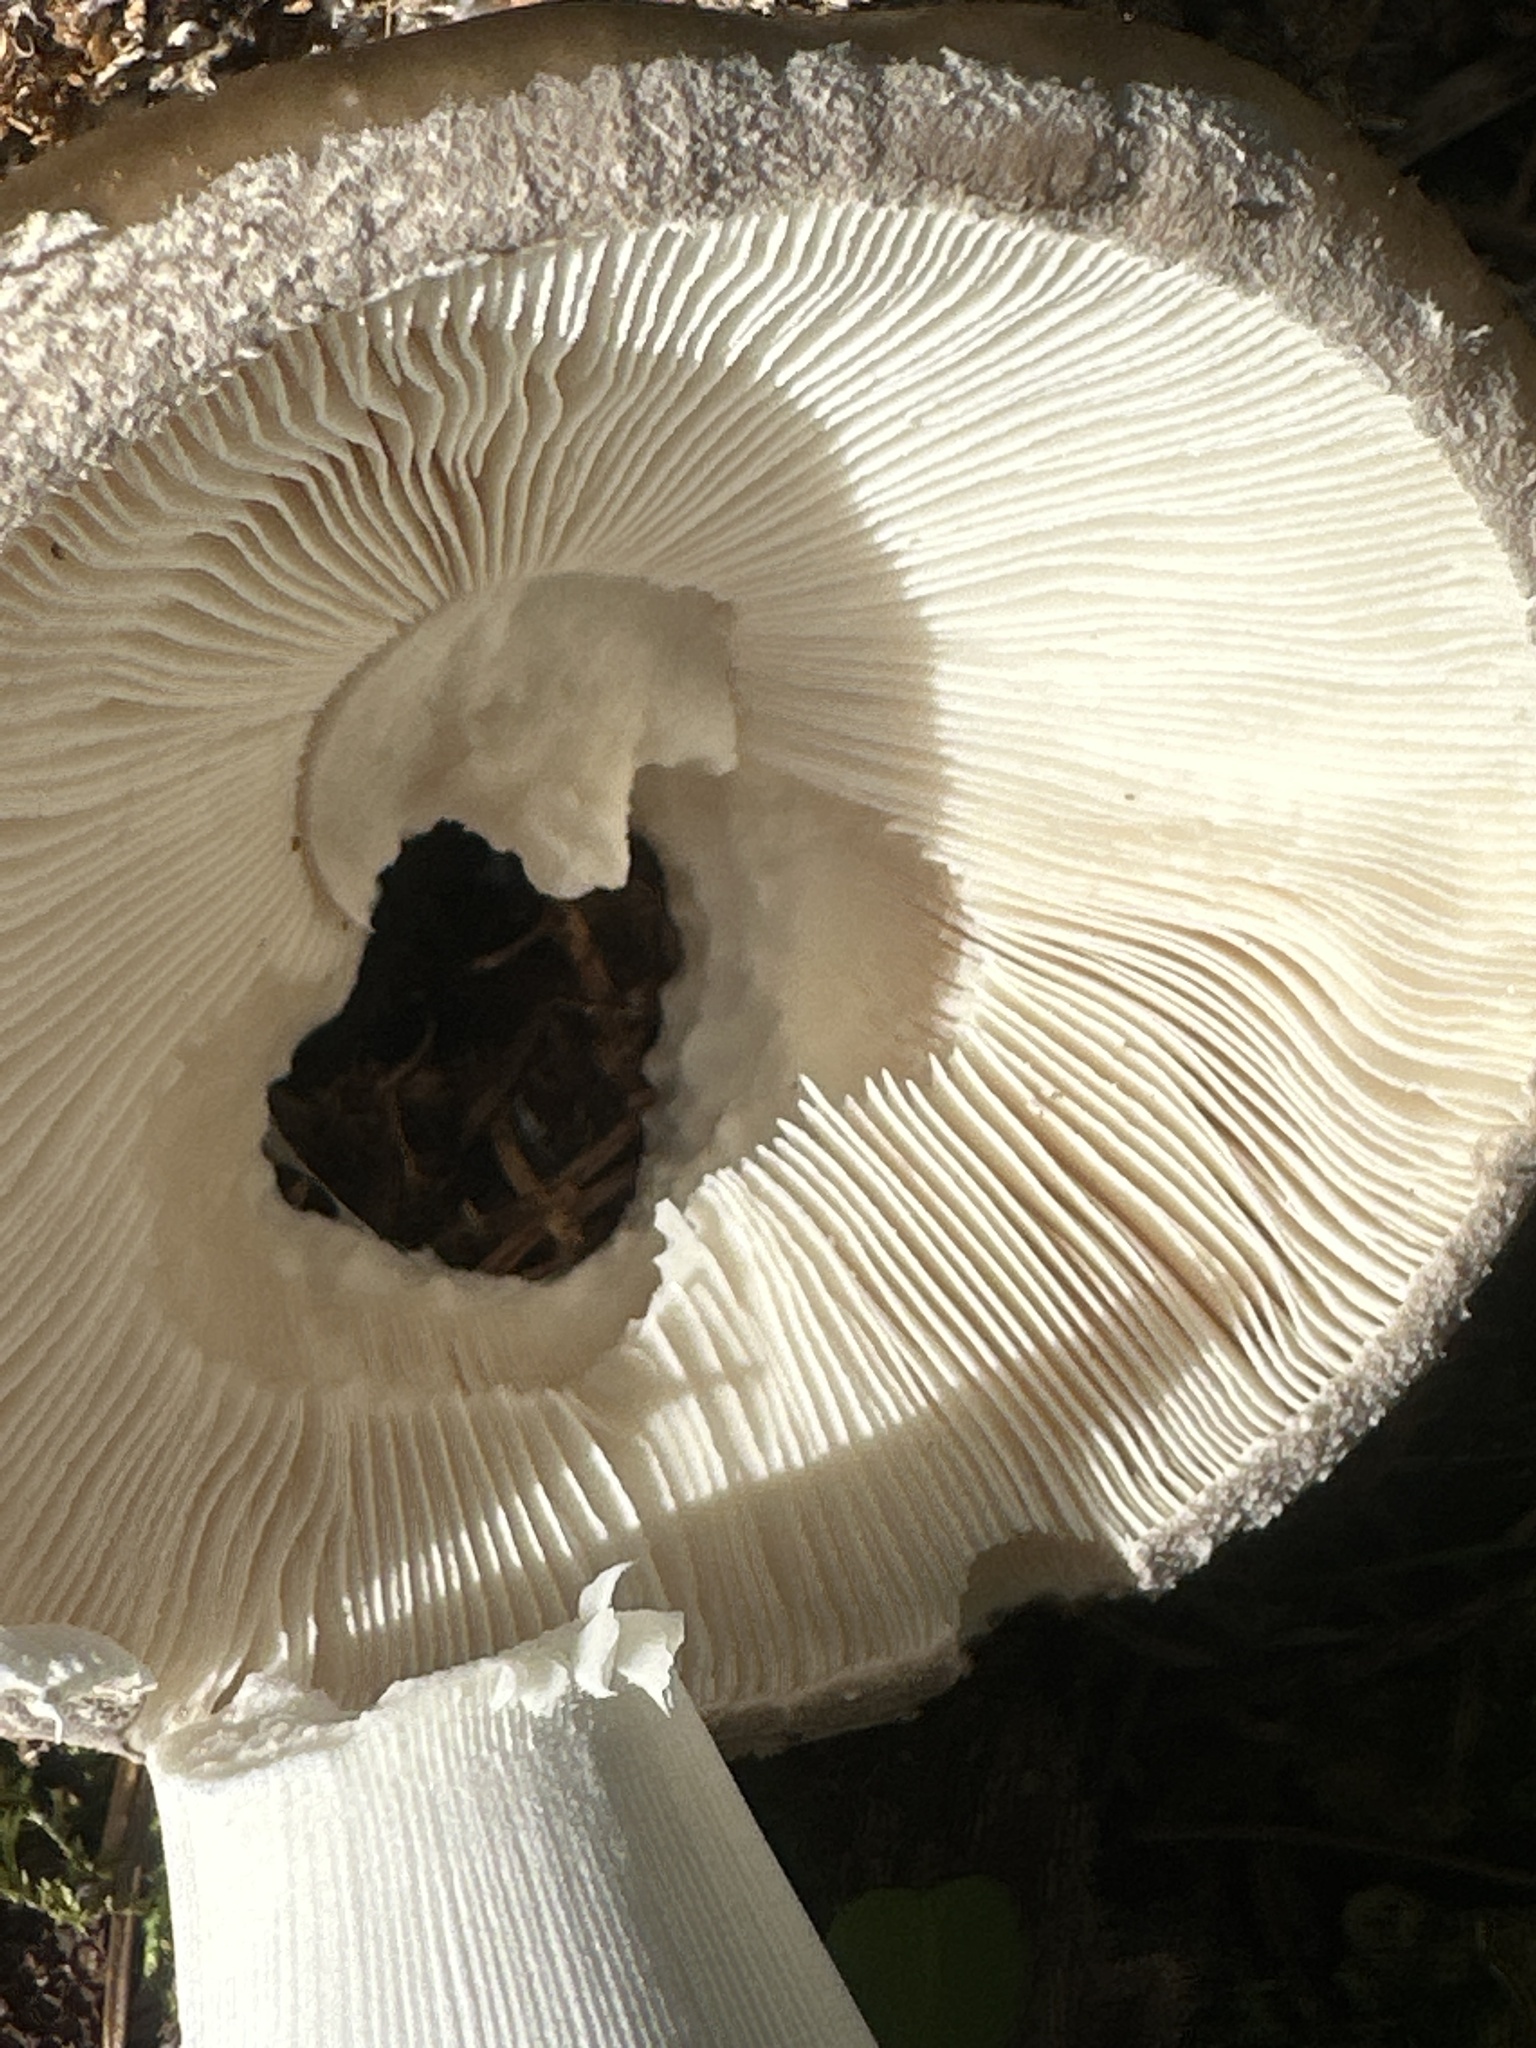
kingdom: Fungi
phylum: Basidiomycota
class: Agaricomycetes
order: Agaricales
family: Amanitaceae
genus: Amanita
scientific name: Amanita excelsa
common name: European false blusher
